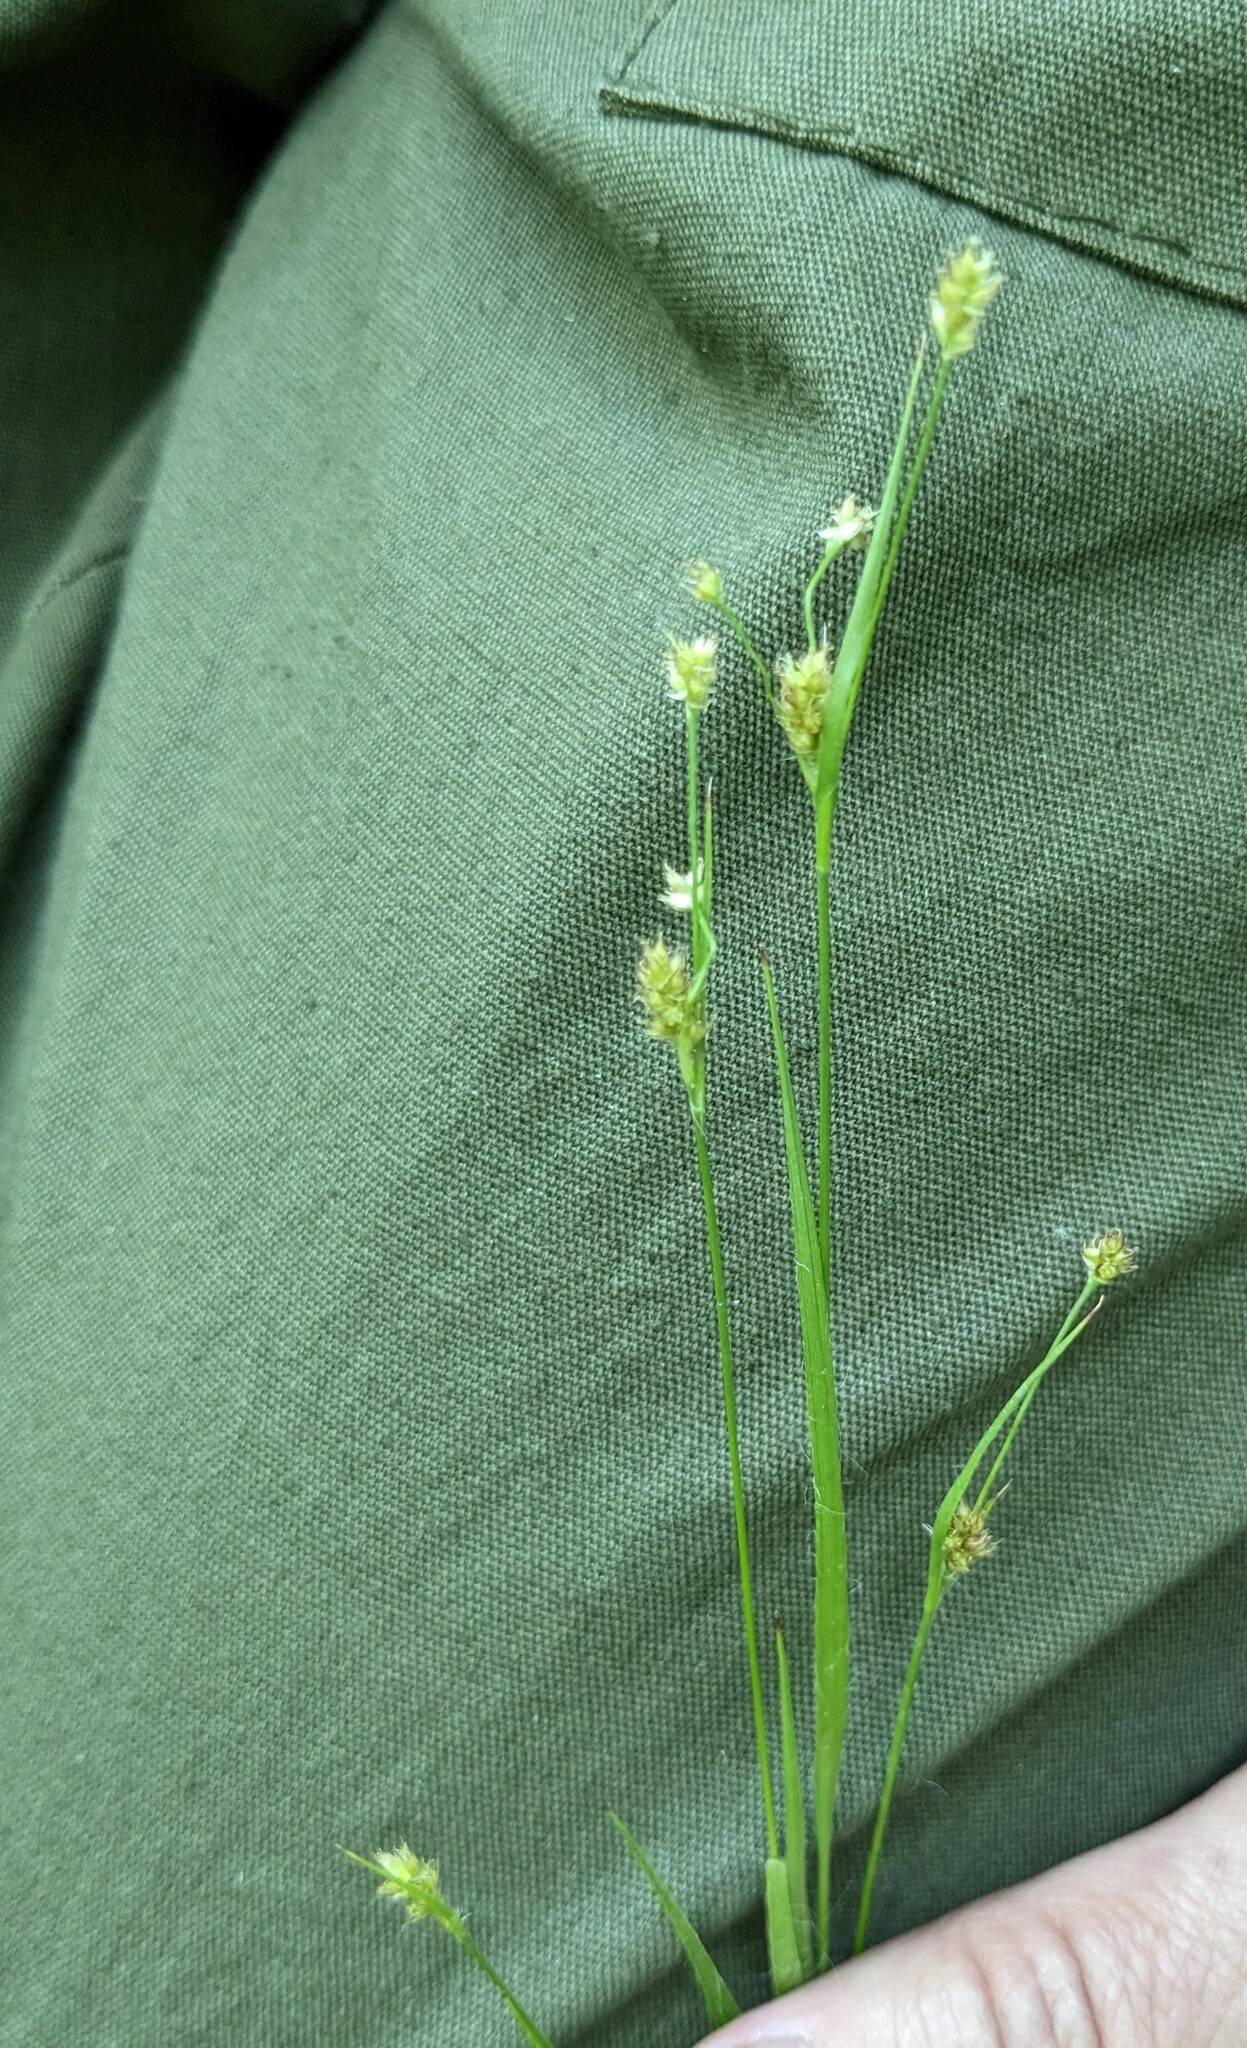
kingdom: Plantae
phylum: Tracheophyta
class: Liliopsida
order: Poales
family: Juncaceae
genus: Luzula
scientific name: Luzula pallescens
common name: Fen wood-rush
